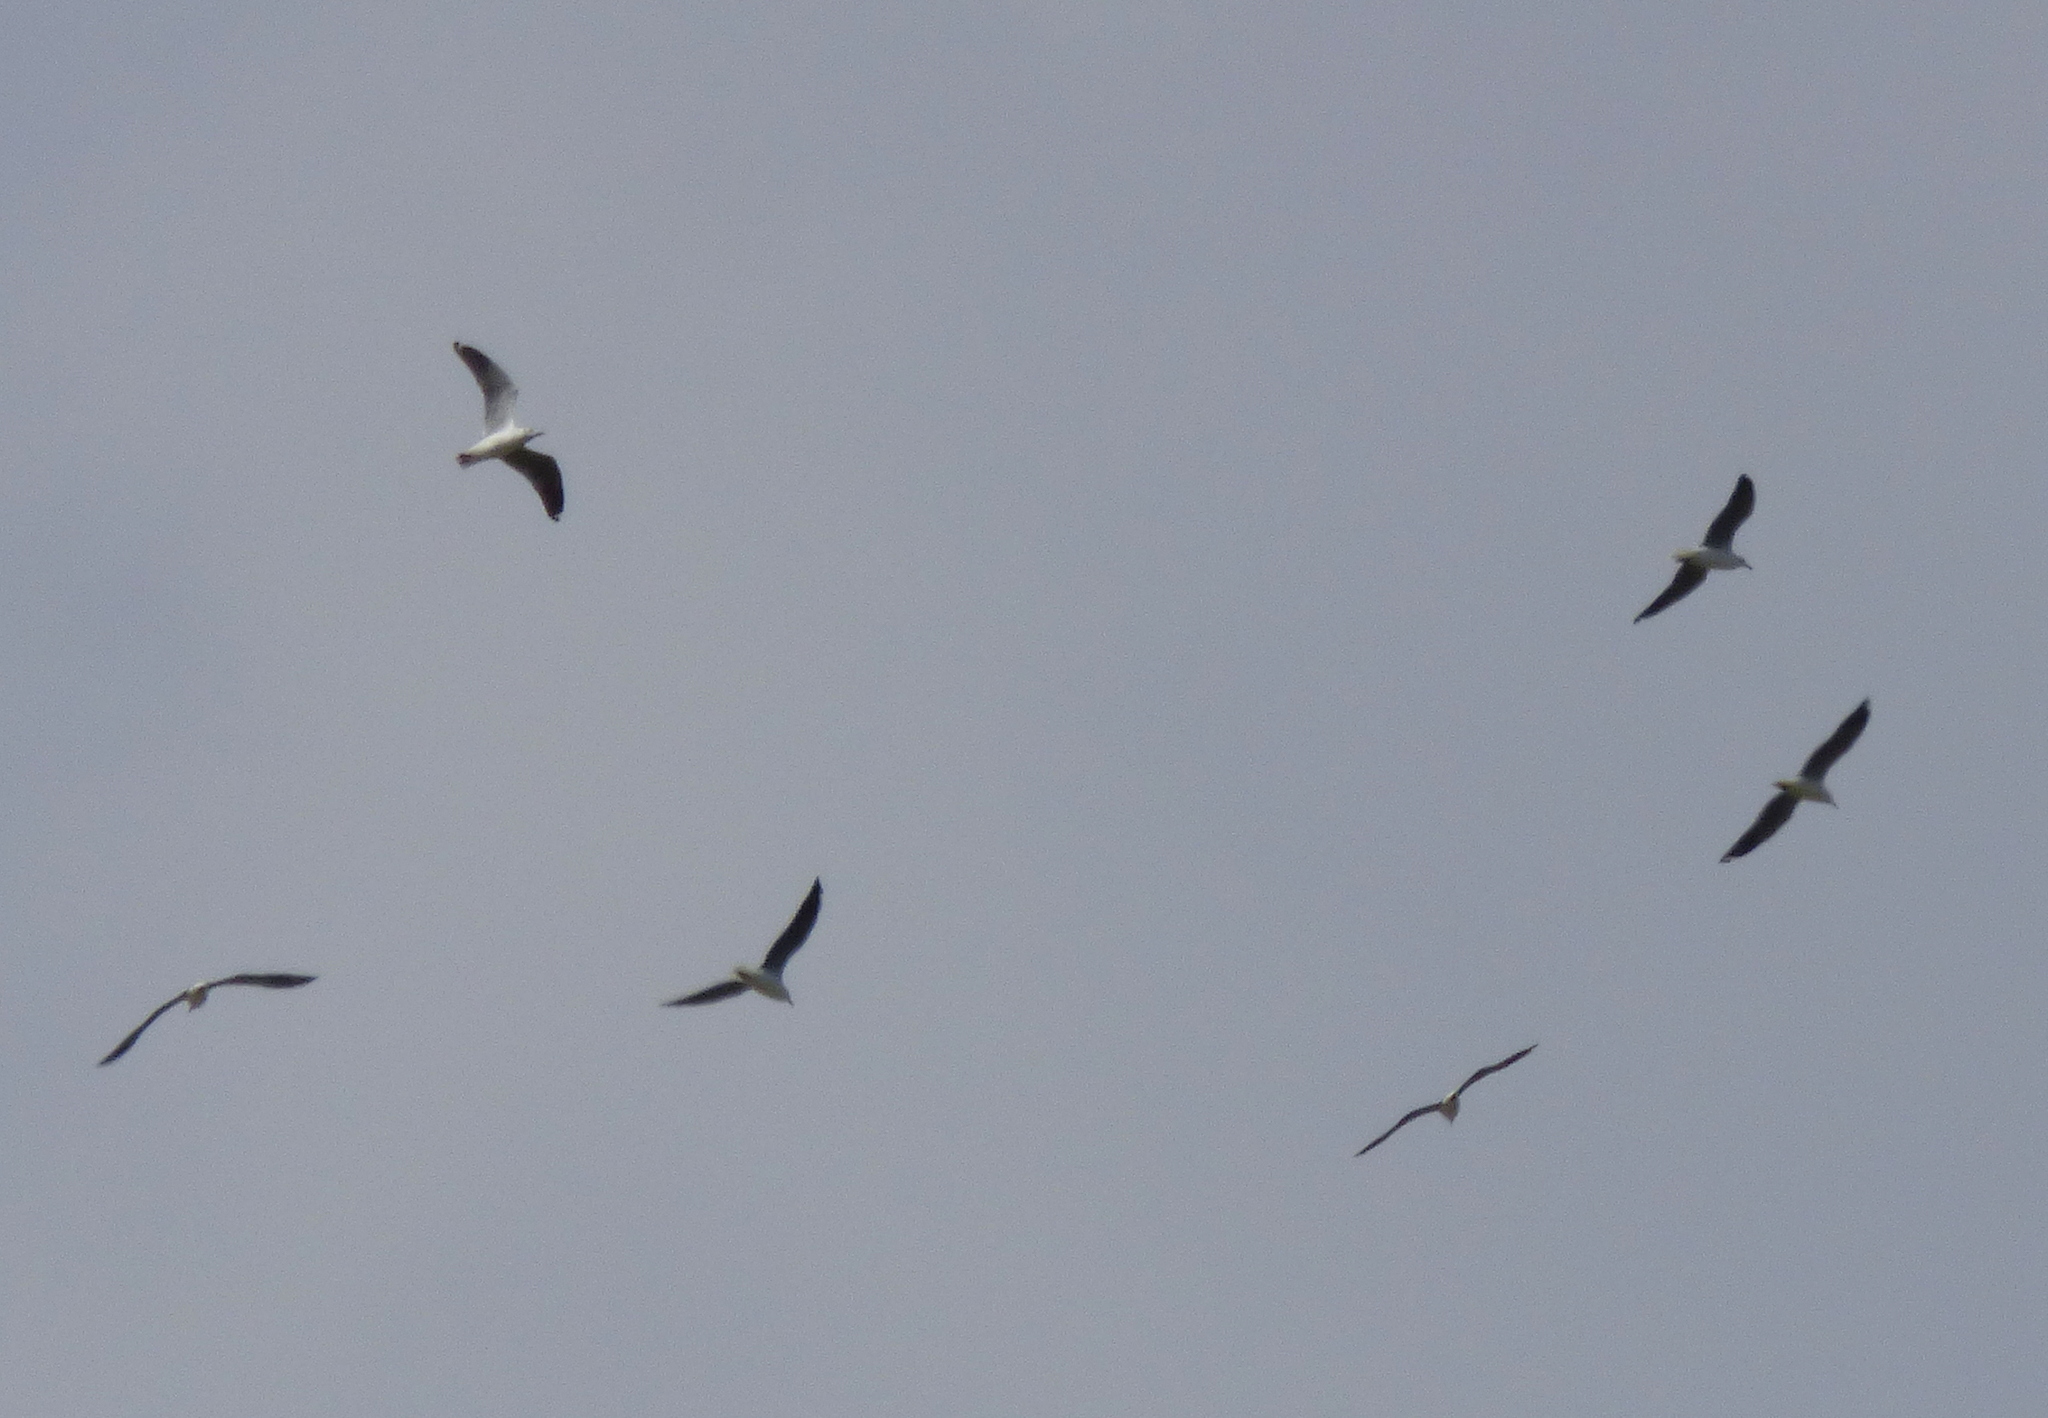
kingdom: Animalia
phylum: Chordata
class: Aves
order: Charadriiformes
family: Laridae
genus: Chroicocephalus
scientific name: Chroicocephalus cirrocephalus
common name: Grey-headed gull
